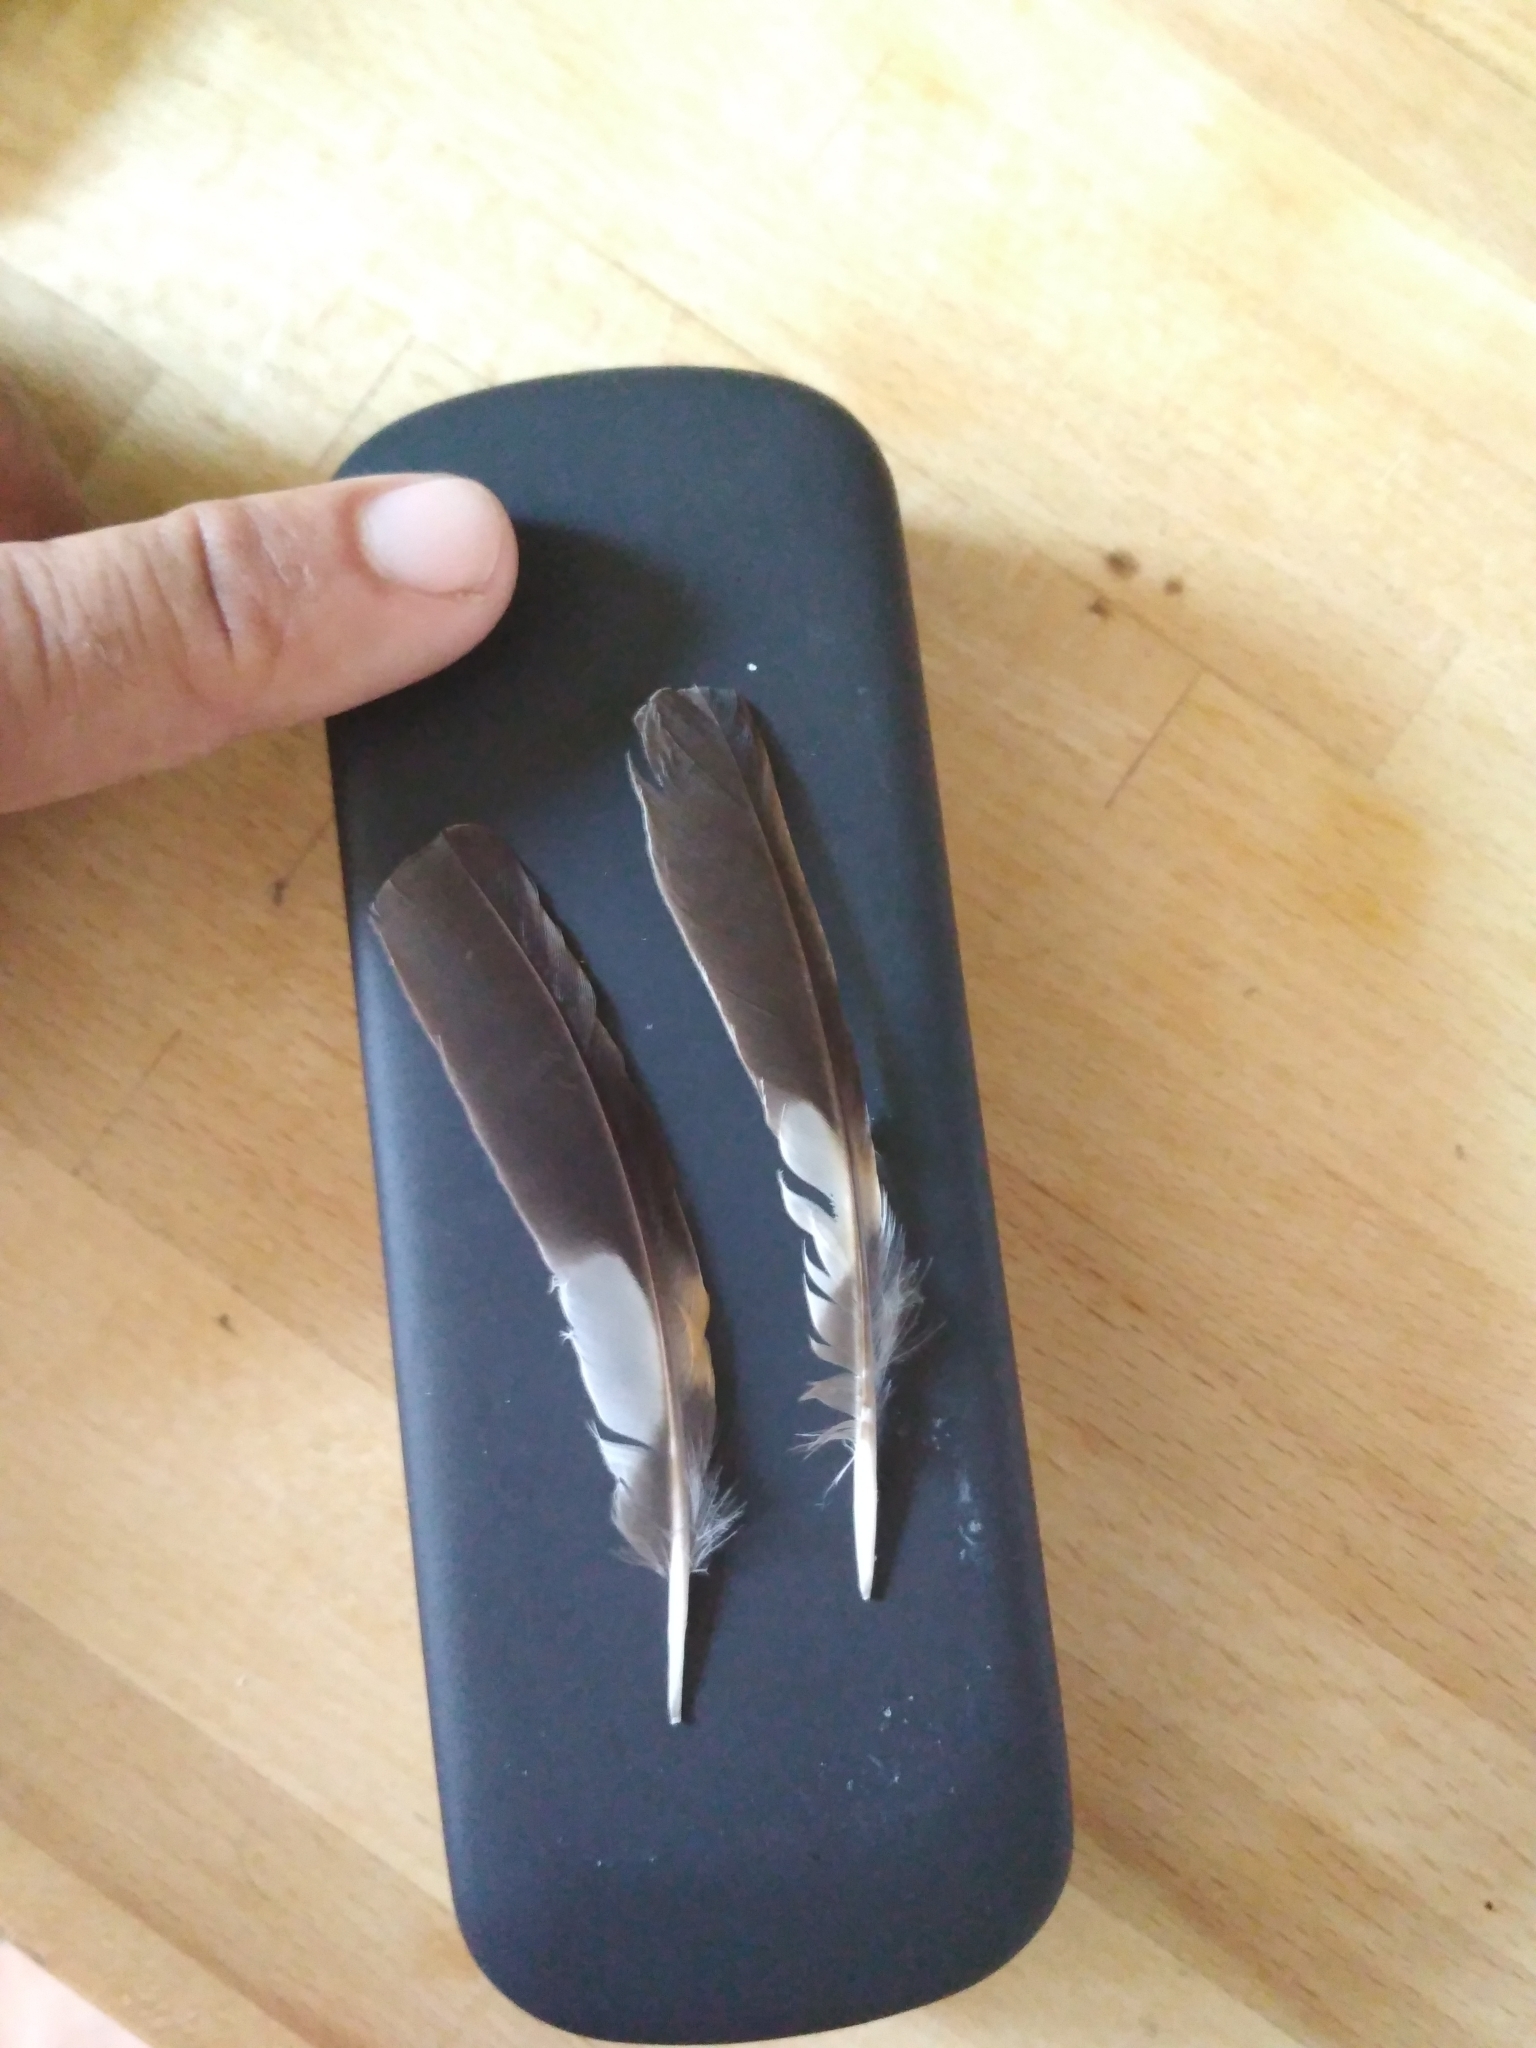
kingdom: Animalia
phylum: Chordata
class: Aves
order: Passeriformes
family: Turdidae
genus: Ixoreus
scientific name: Ixoreus naevius
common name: Varied thrush
